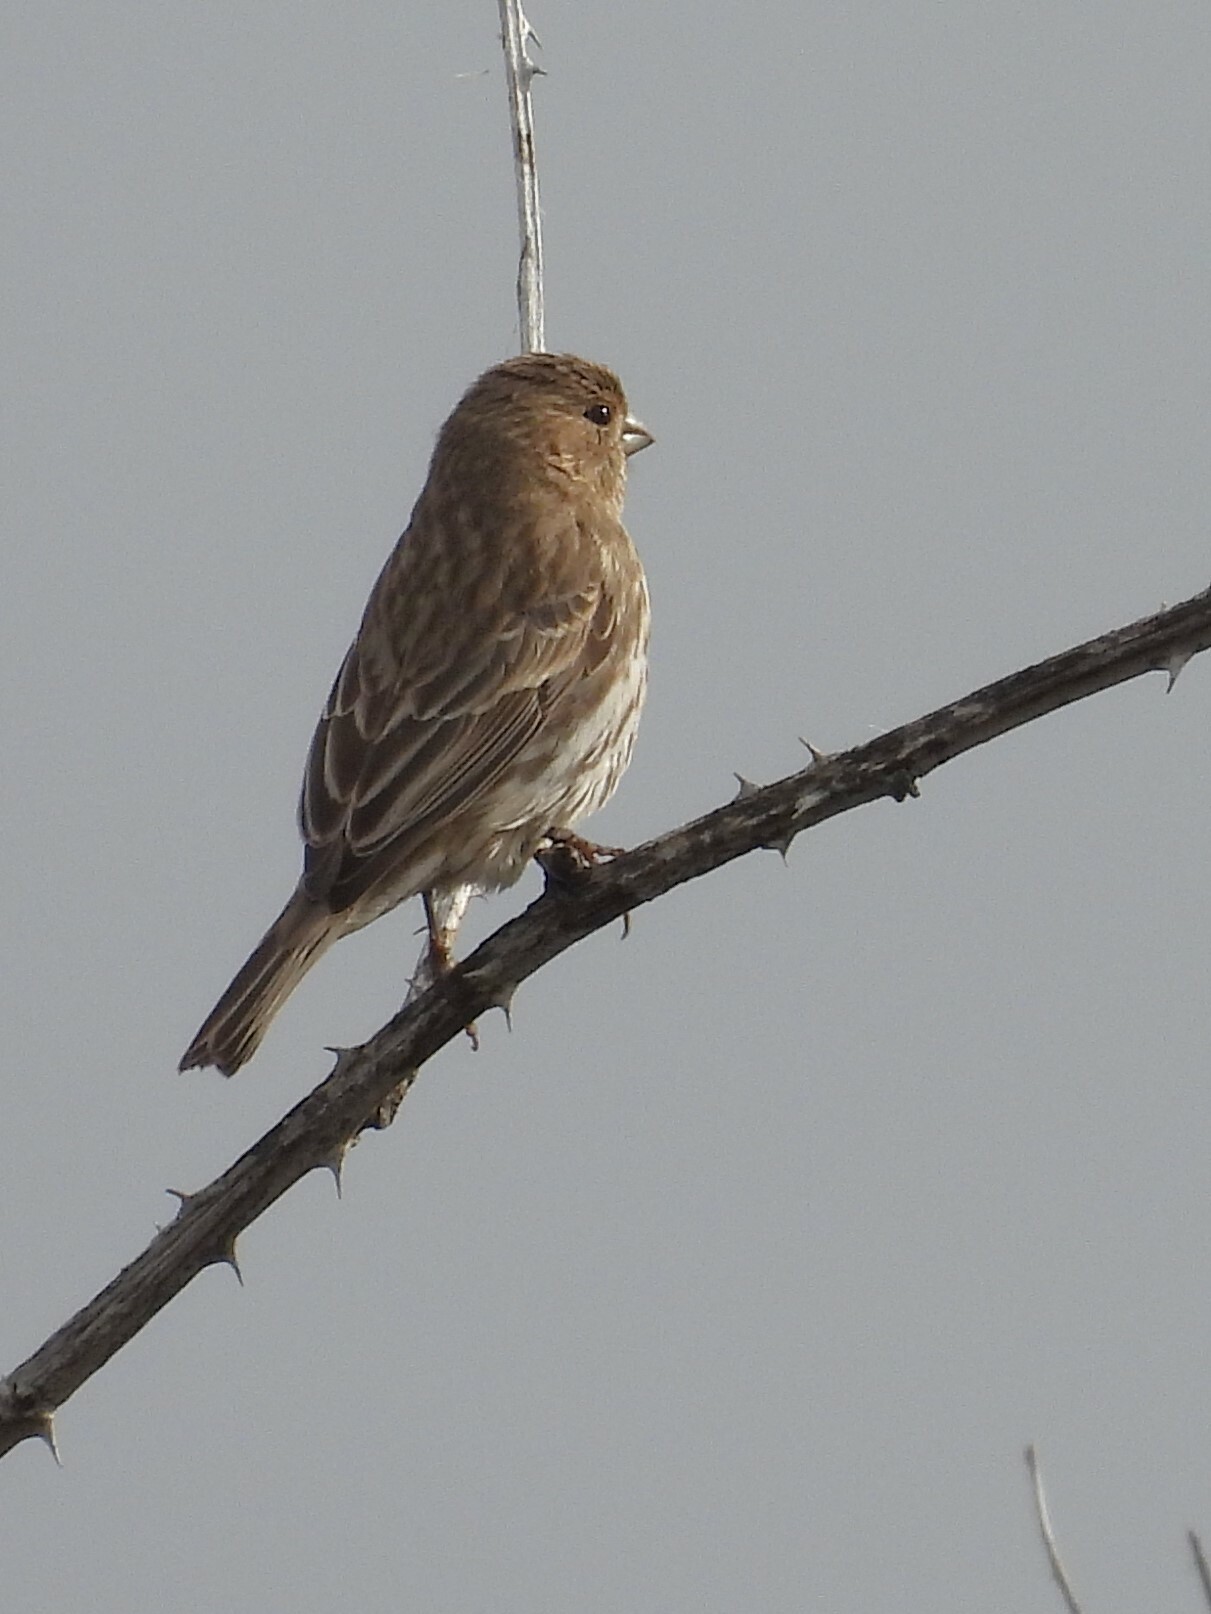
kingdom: Animalia
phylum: Chordata
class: Aves
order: Passeriformes
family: Fringillidae
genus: Haemorhous
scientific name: Haemorhous mexicanus
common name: House finch
